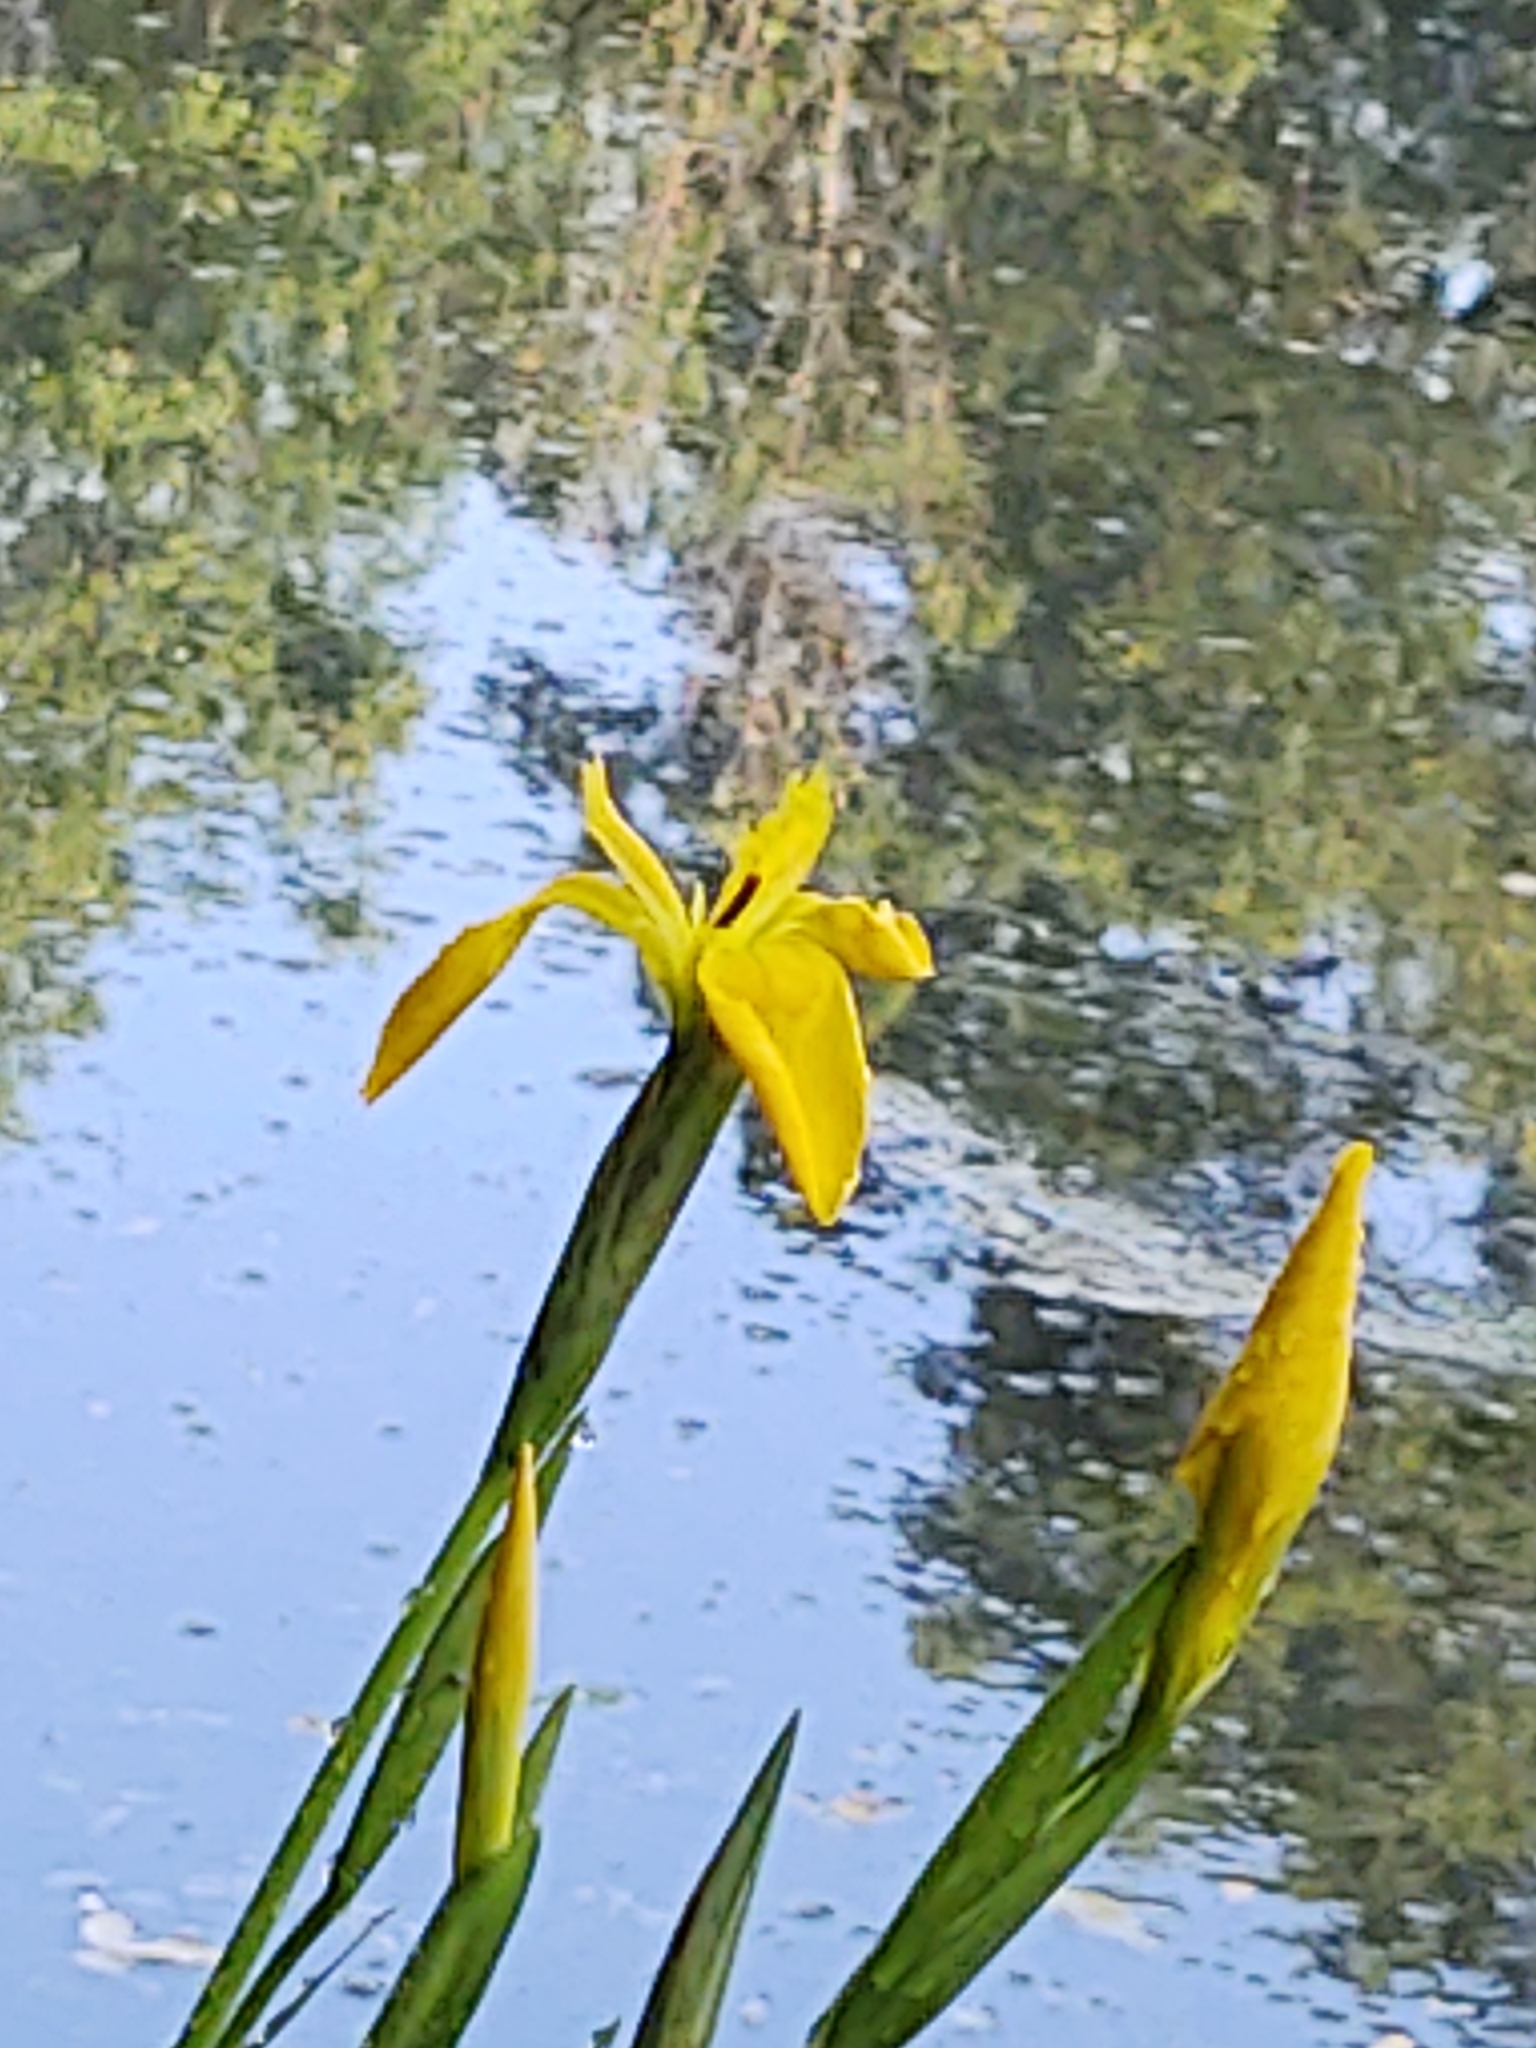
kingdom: Plantae
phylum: Tracheophyta
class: Liliopsida
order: Asparagales
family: Iridaceae
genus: Iris
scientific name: Iris pseudacorus
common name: Yellow flag
